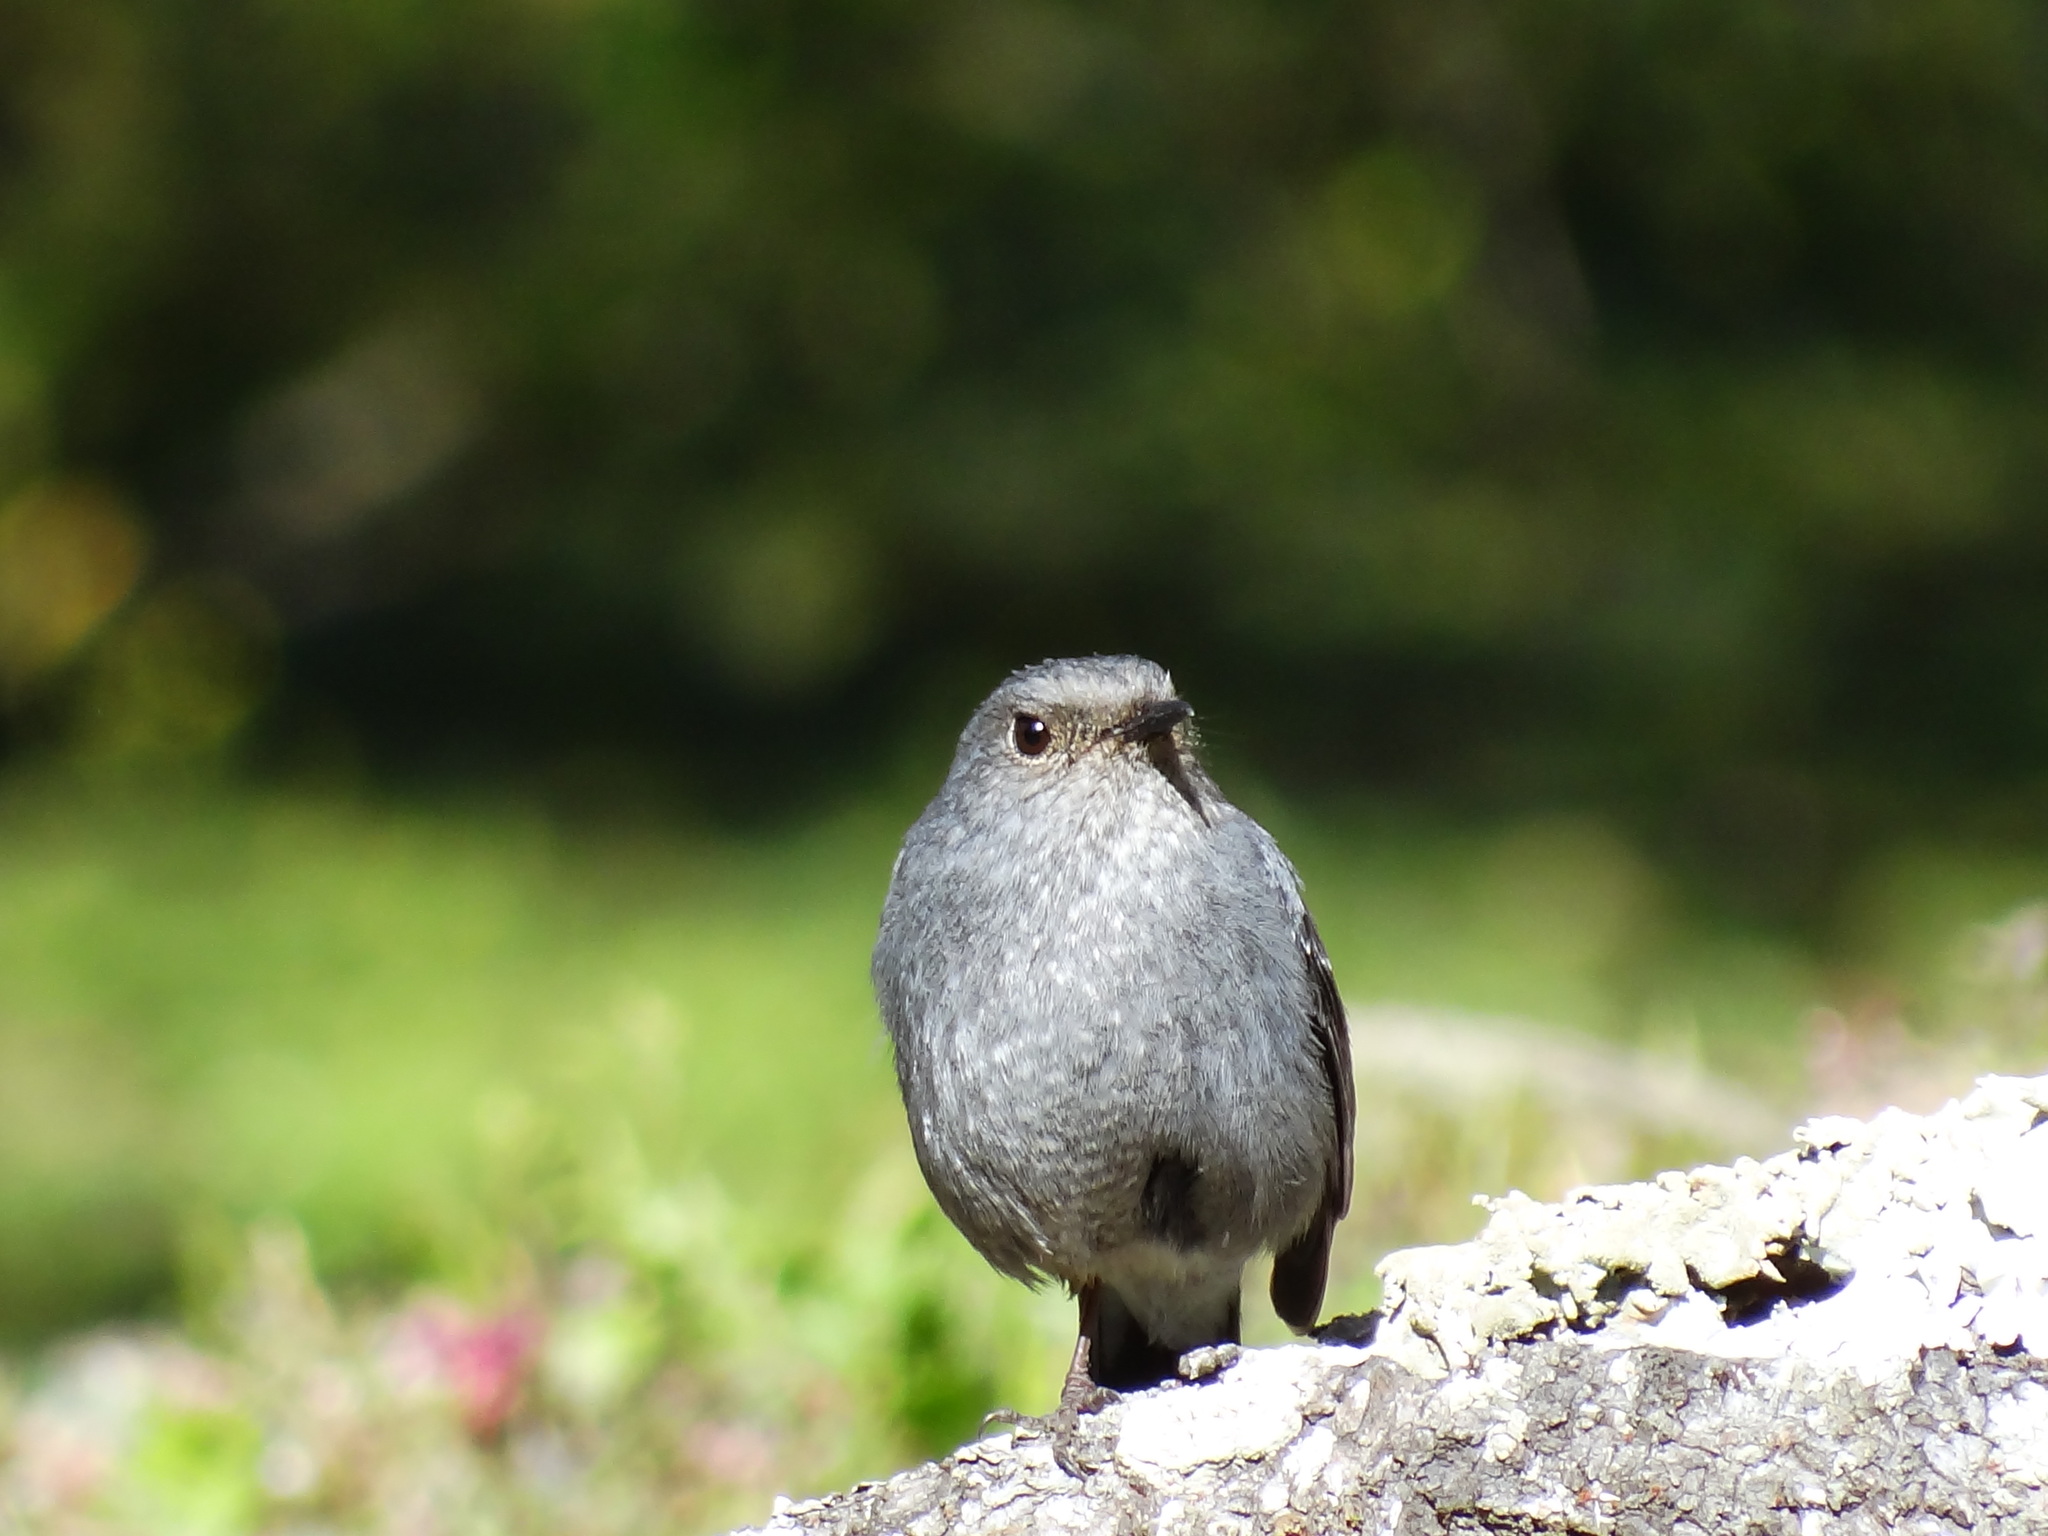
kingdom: Animalia
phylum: Chordata
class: Aves
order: Passeriformes
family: Muscicapidae
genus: Phoenicurus
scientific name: Phoenicurus fuliginosus
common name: Plumbeous water redstart
